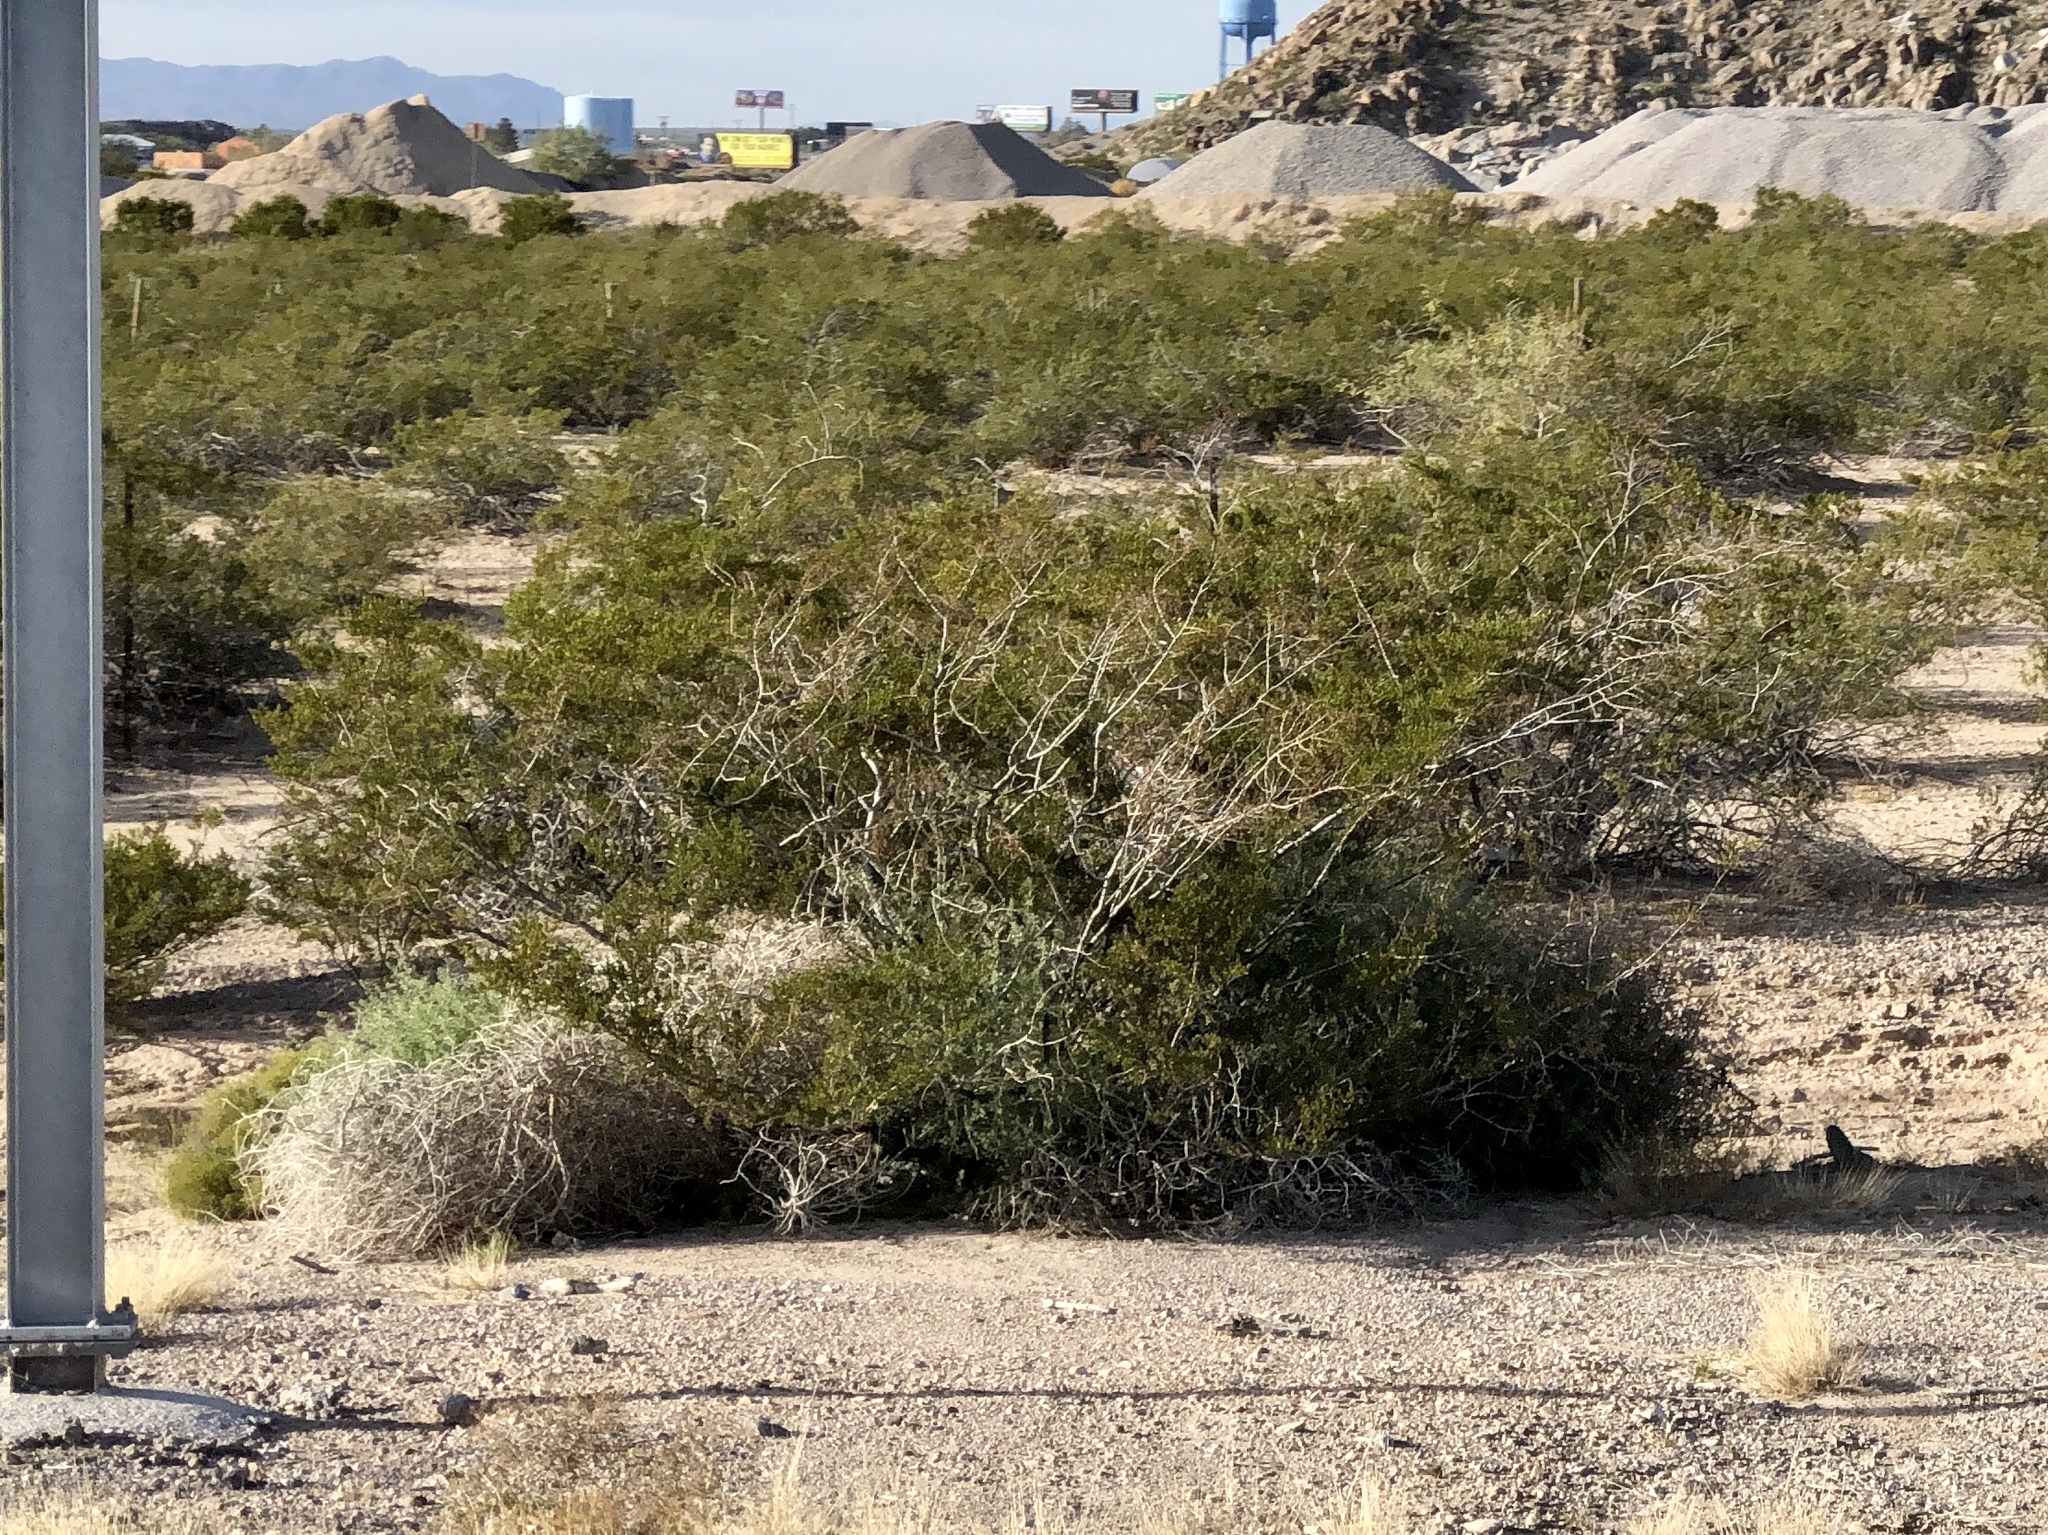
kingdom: Plantae
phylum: Tracheophyta
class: Magnoliopsida
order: Zygophyllales
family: Zygophyllaceae
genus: Larrea
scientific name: Larrea tridentata
